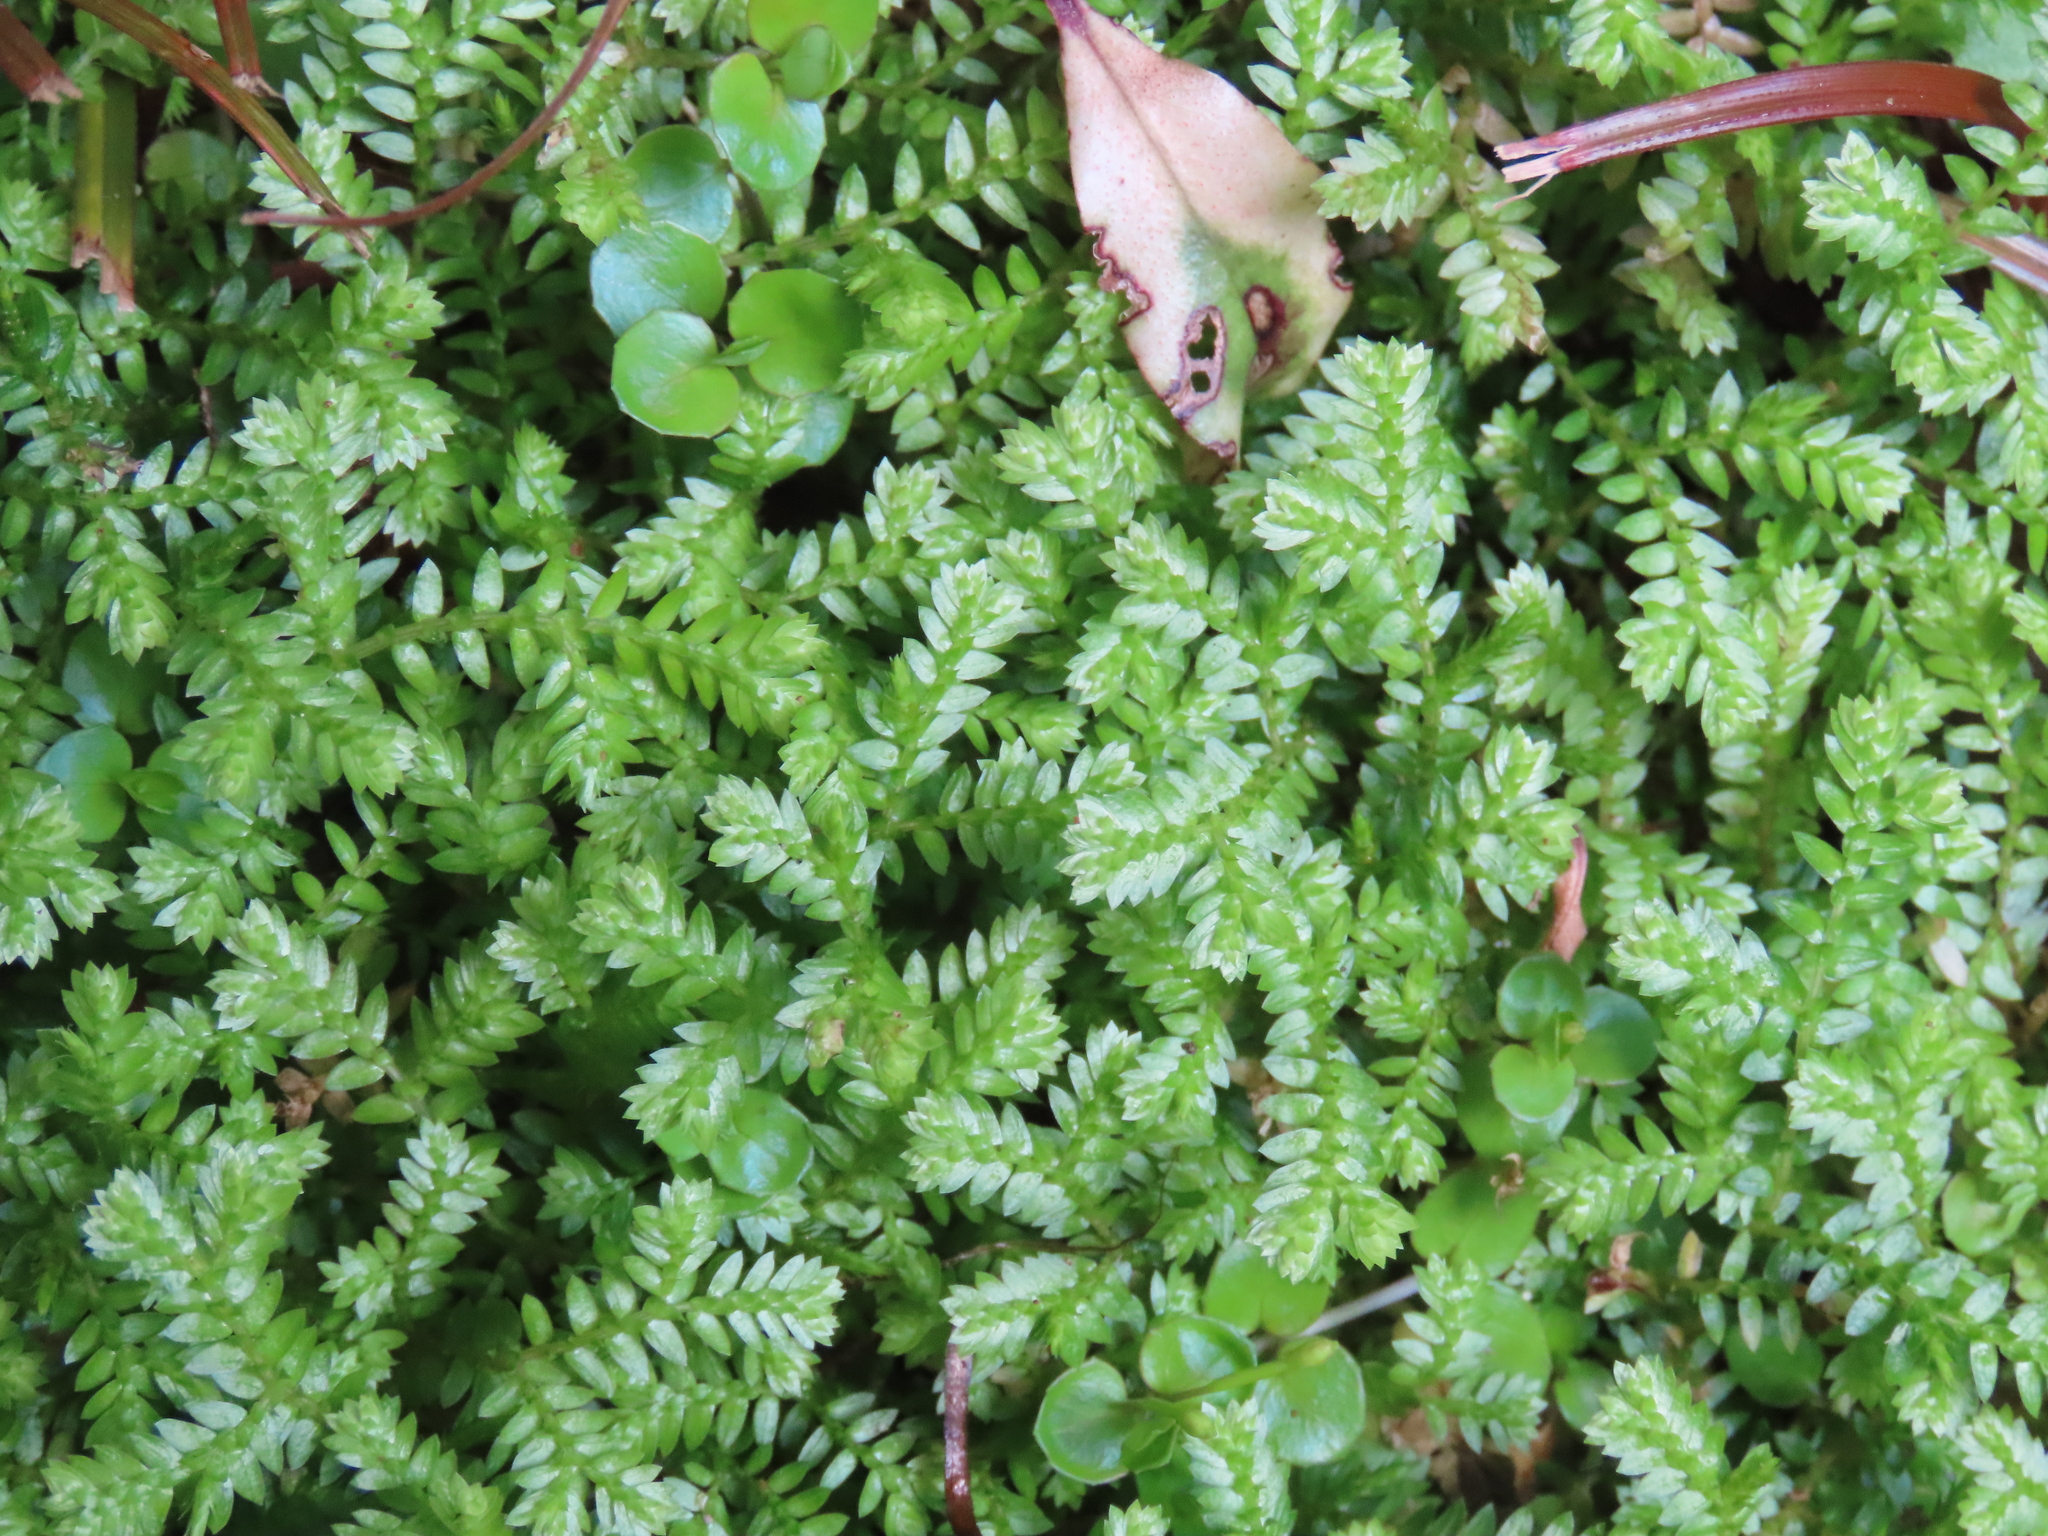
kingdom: Plantae
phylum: Tracheophyta
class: Lycopodiopsida
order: Selaginellales
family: Selaginellaceae
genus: Selaginella
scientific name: Selaginella kraussiana
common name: Krauss' spikemoss
